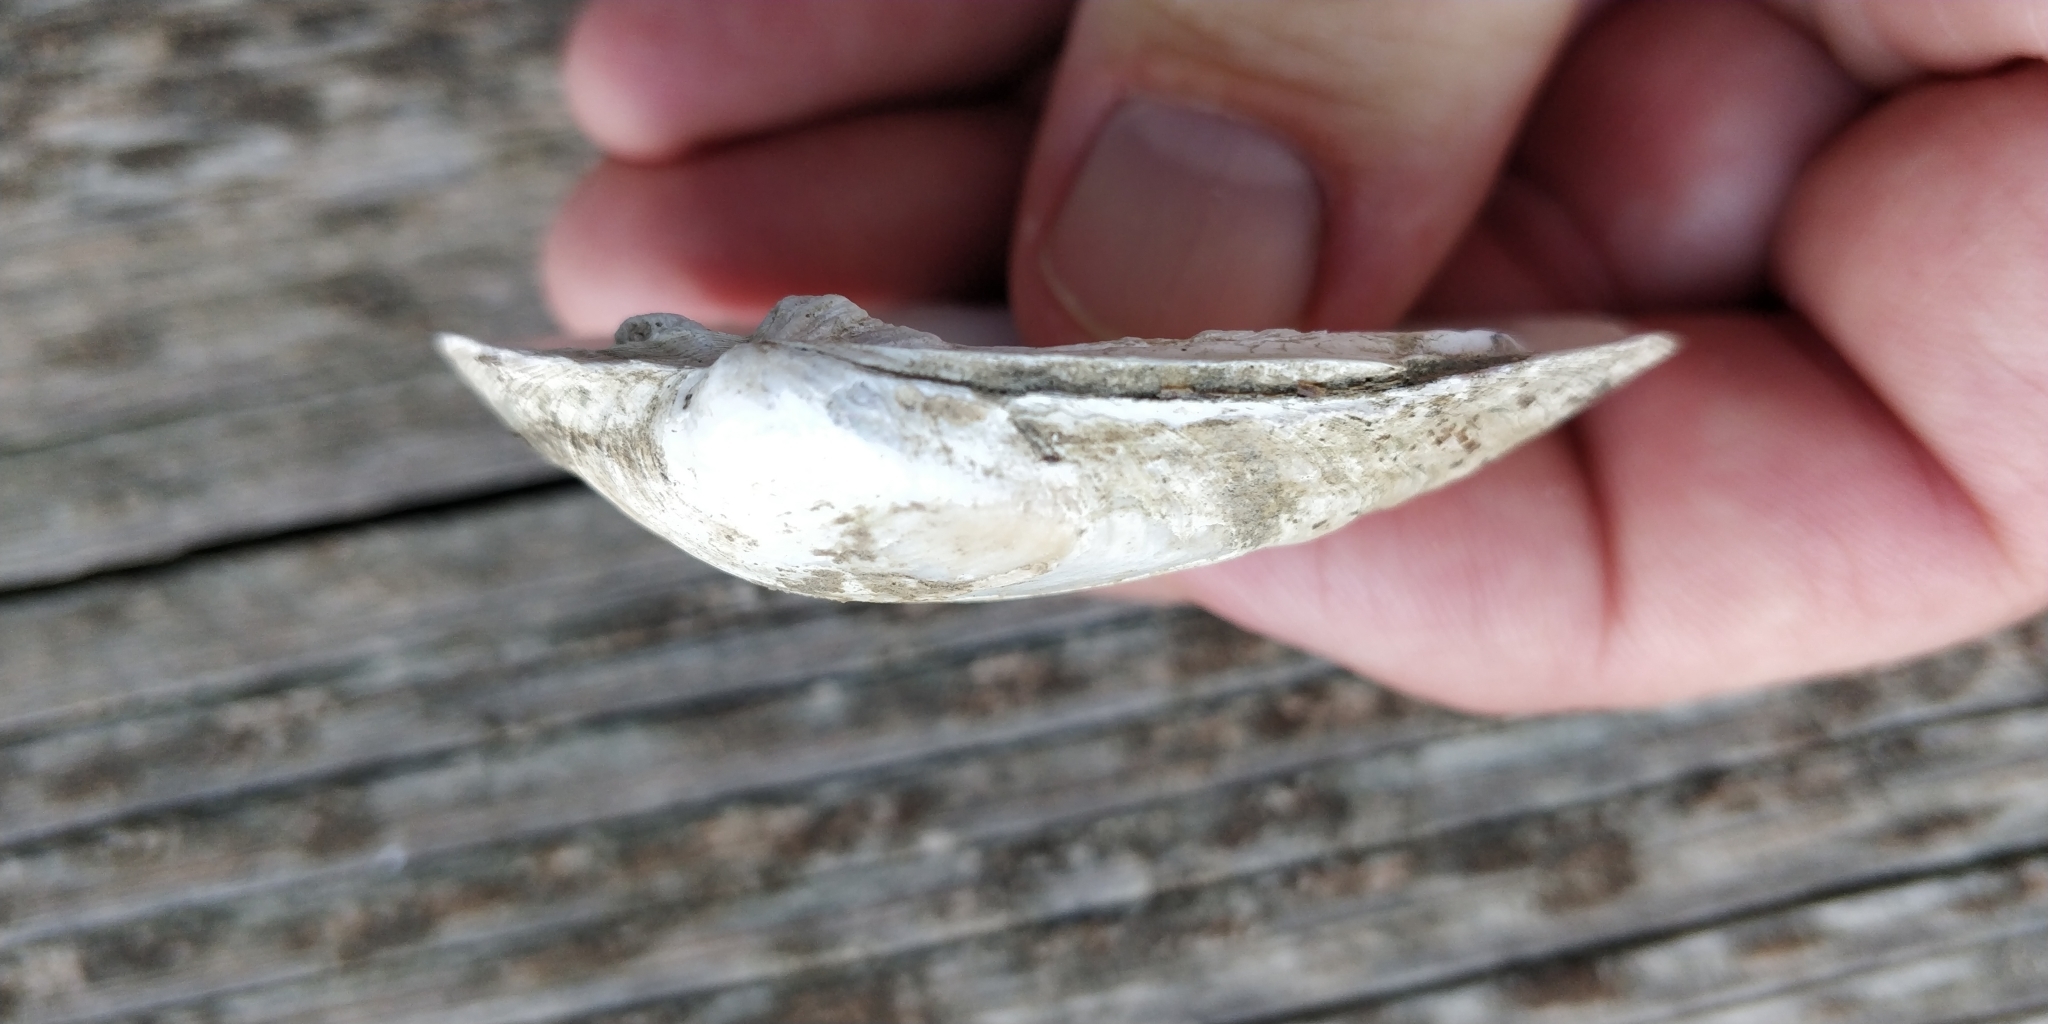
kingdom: Animalia
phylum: Mollusca
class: Bivalvia
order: Unionida
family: Unionidae
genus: Fusconaia
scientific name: Fusconaia flava
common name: Wabash pigtoe
